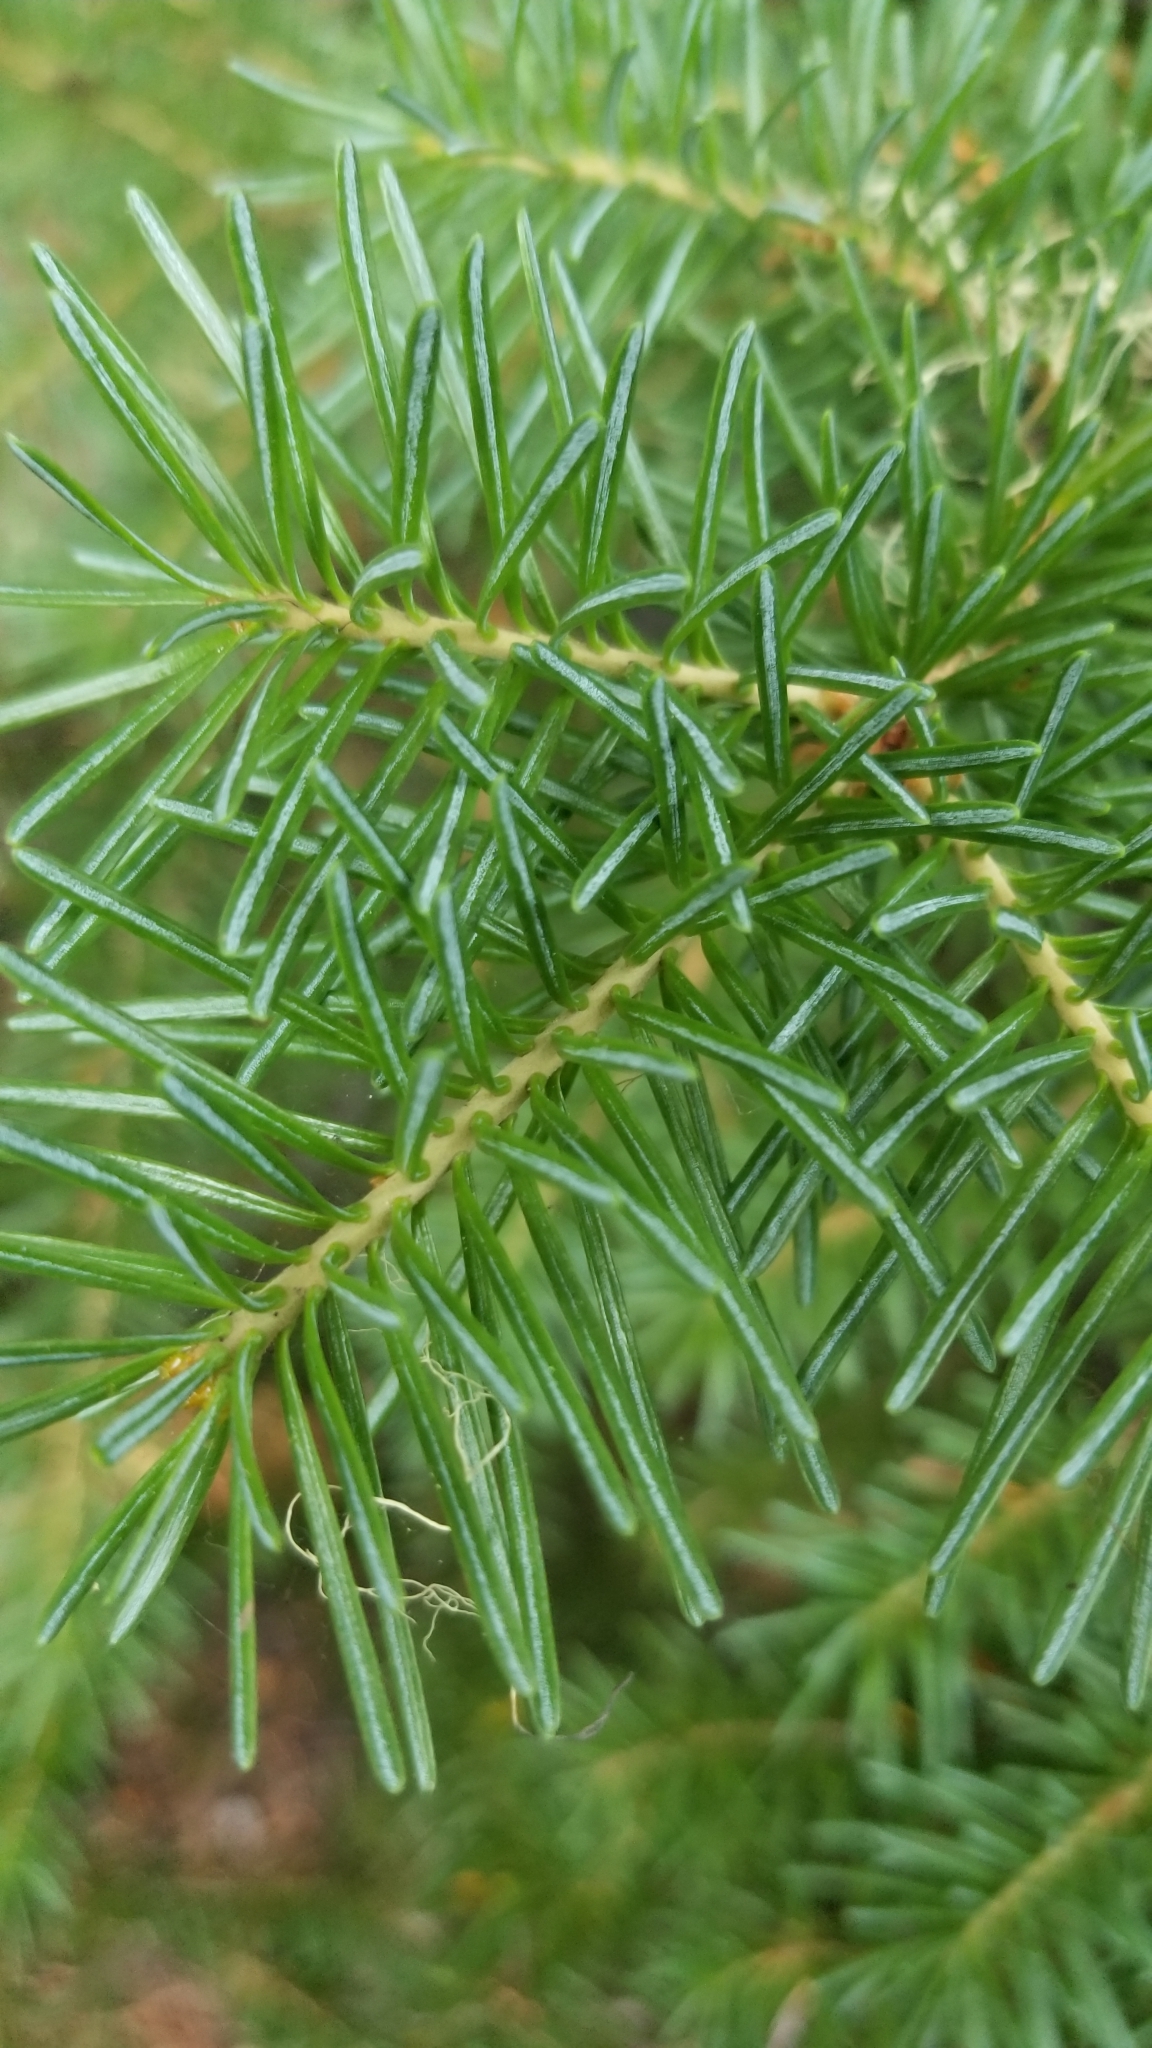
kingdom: Plantae
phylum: Tracheophyta
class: Pinopsida
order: Pinales
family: Pinaceae
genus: Abies
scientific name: Abies lasiocarpa
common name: Subalpine fir
